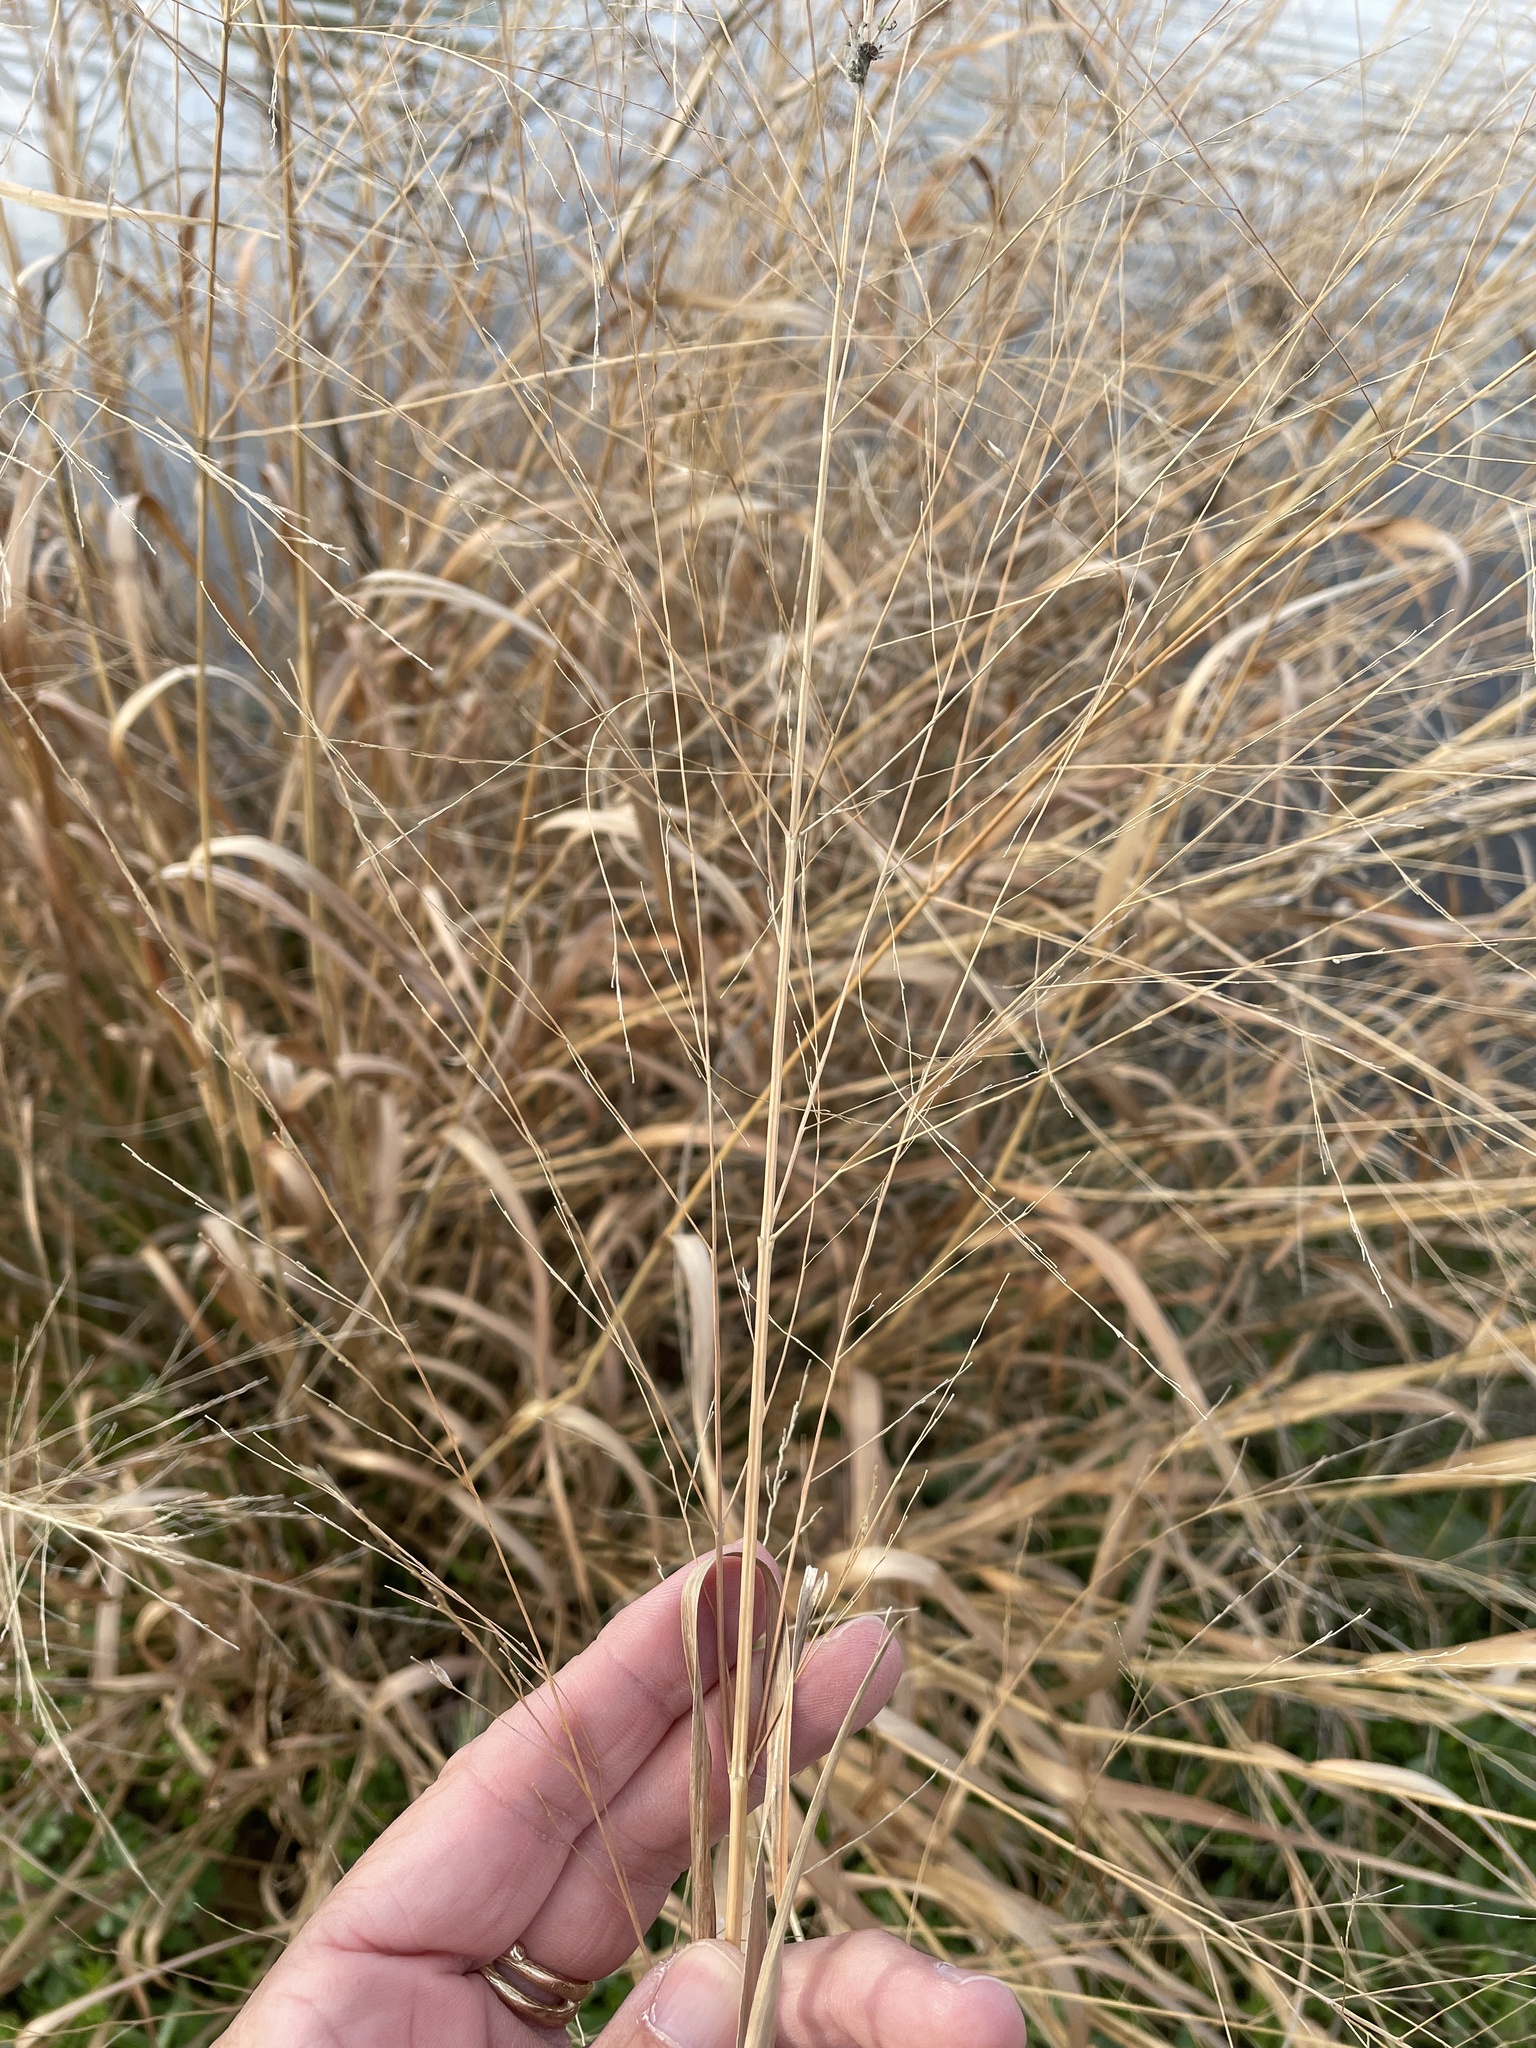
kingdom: Plantae
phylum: Tracheophyta
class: Liliopsida
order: Poales
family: Poaceae
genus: Panicum
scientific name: Panicum virgatum
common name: Switchgrass
